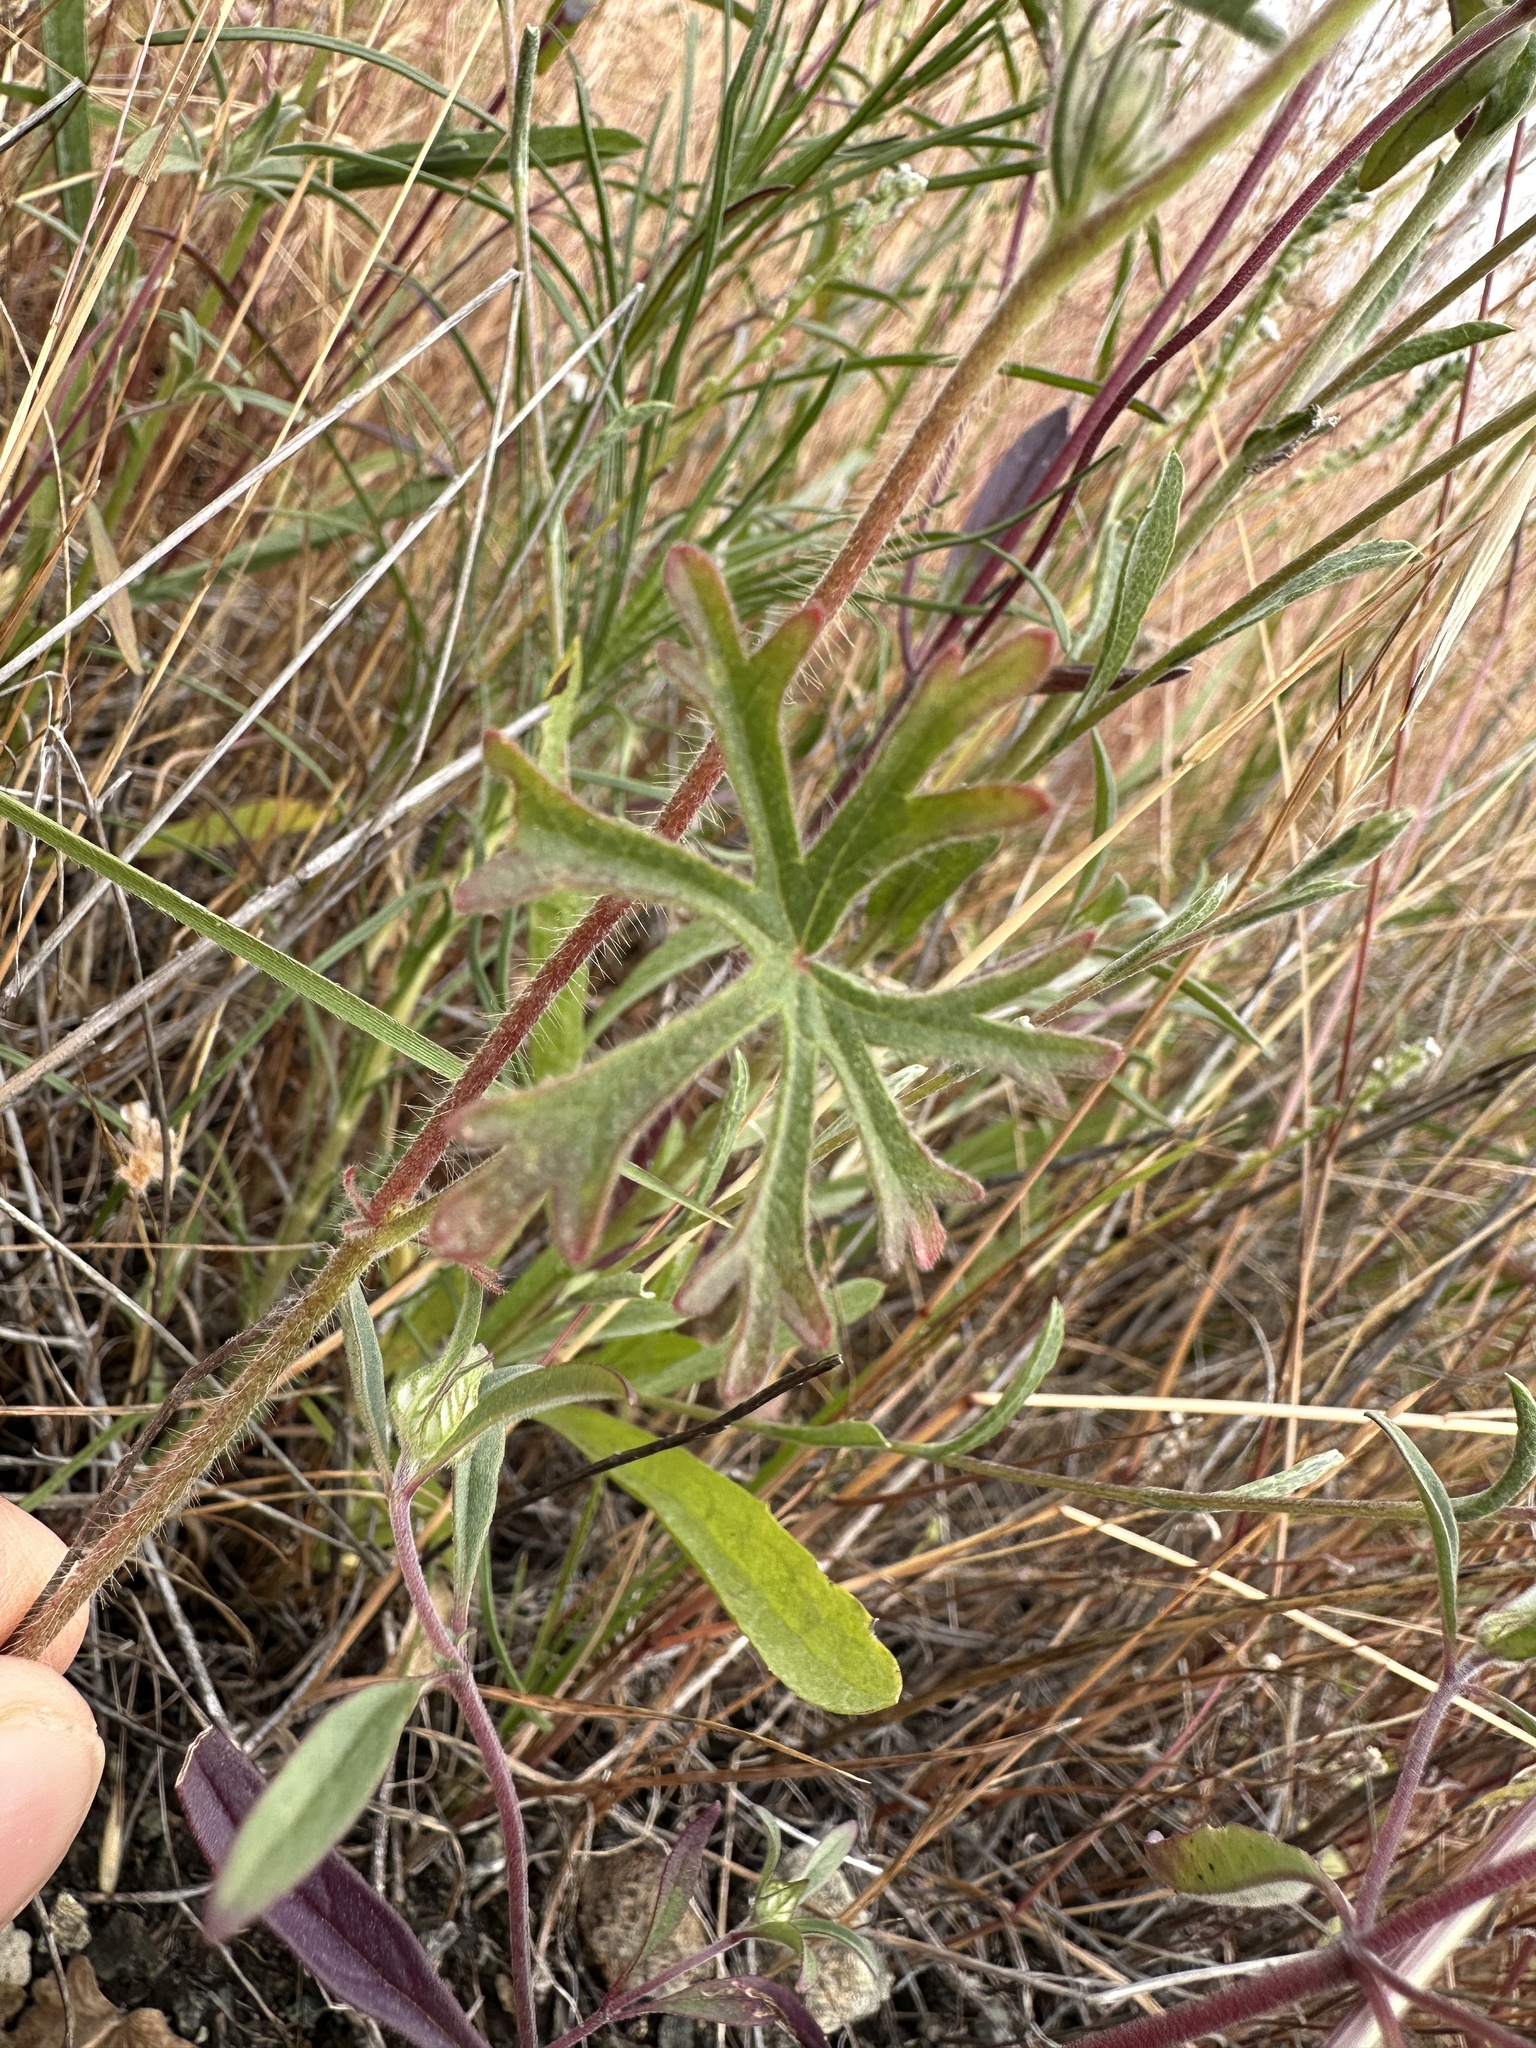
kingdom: Plantae
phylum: Tracheophyta
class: Magnoliopsida
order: Malvales
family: Malvaceae
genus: Sidalcea
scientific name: Sidalcea diploscypha
